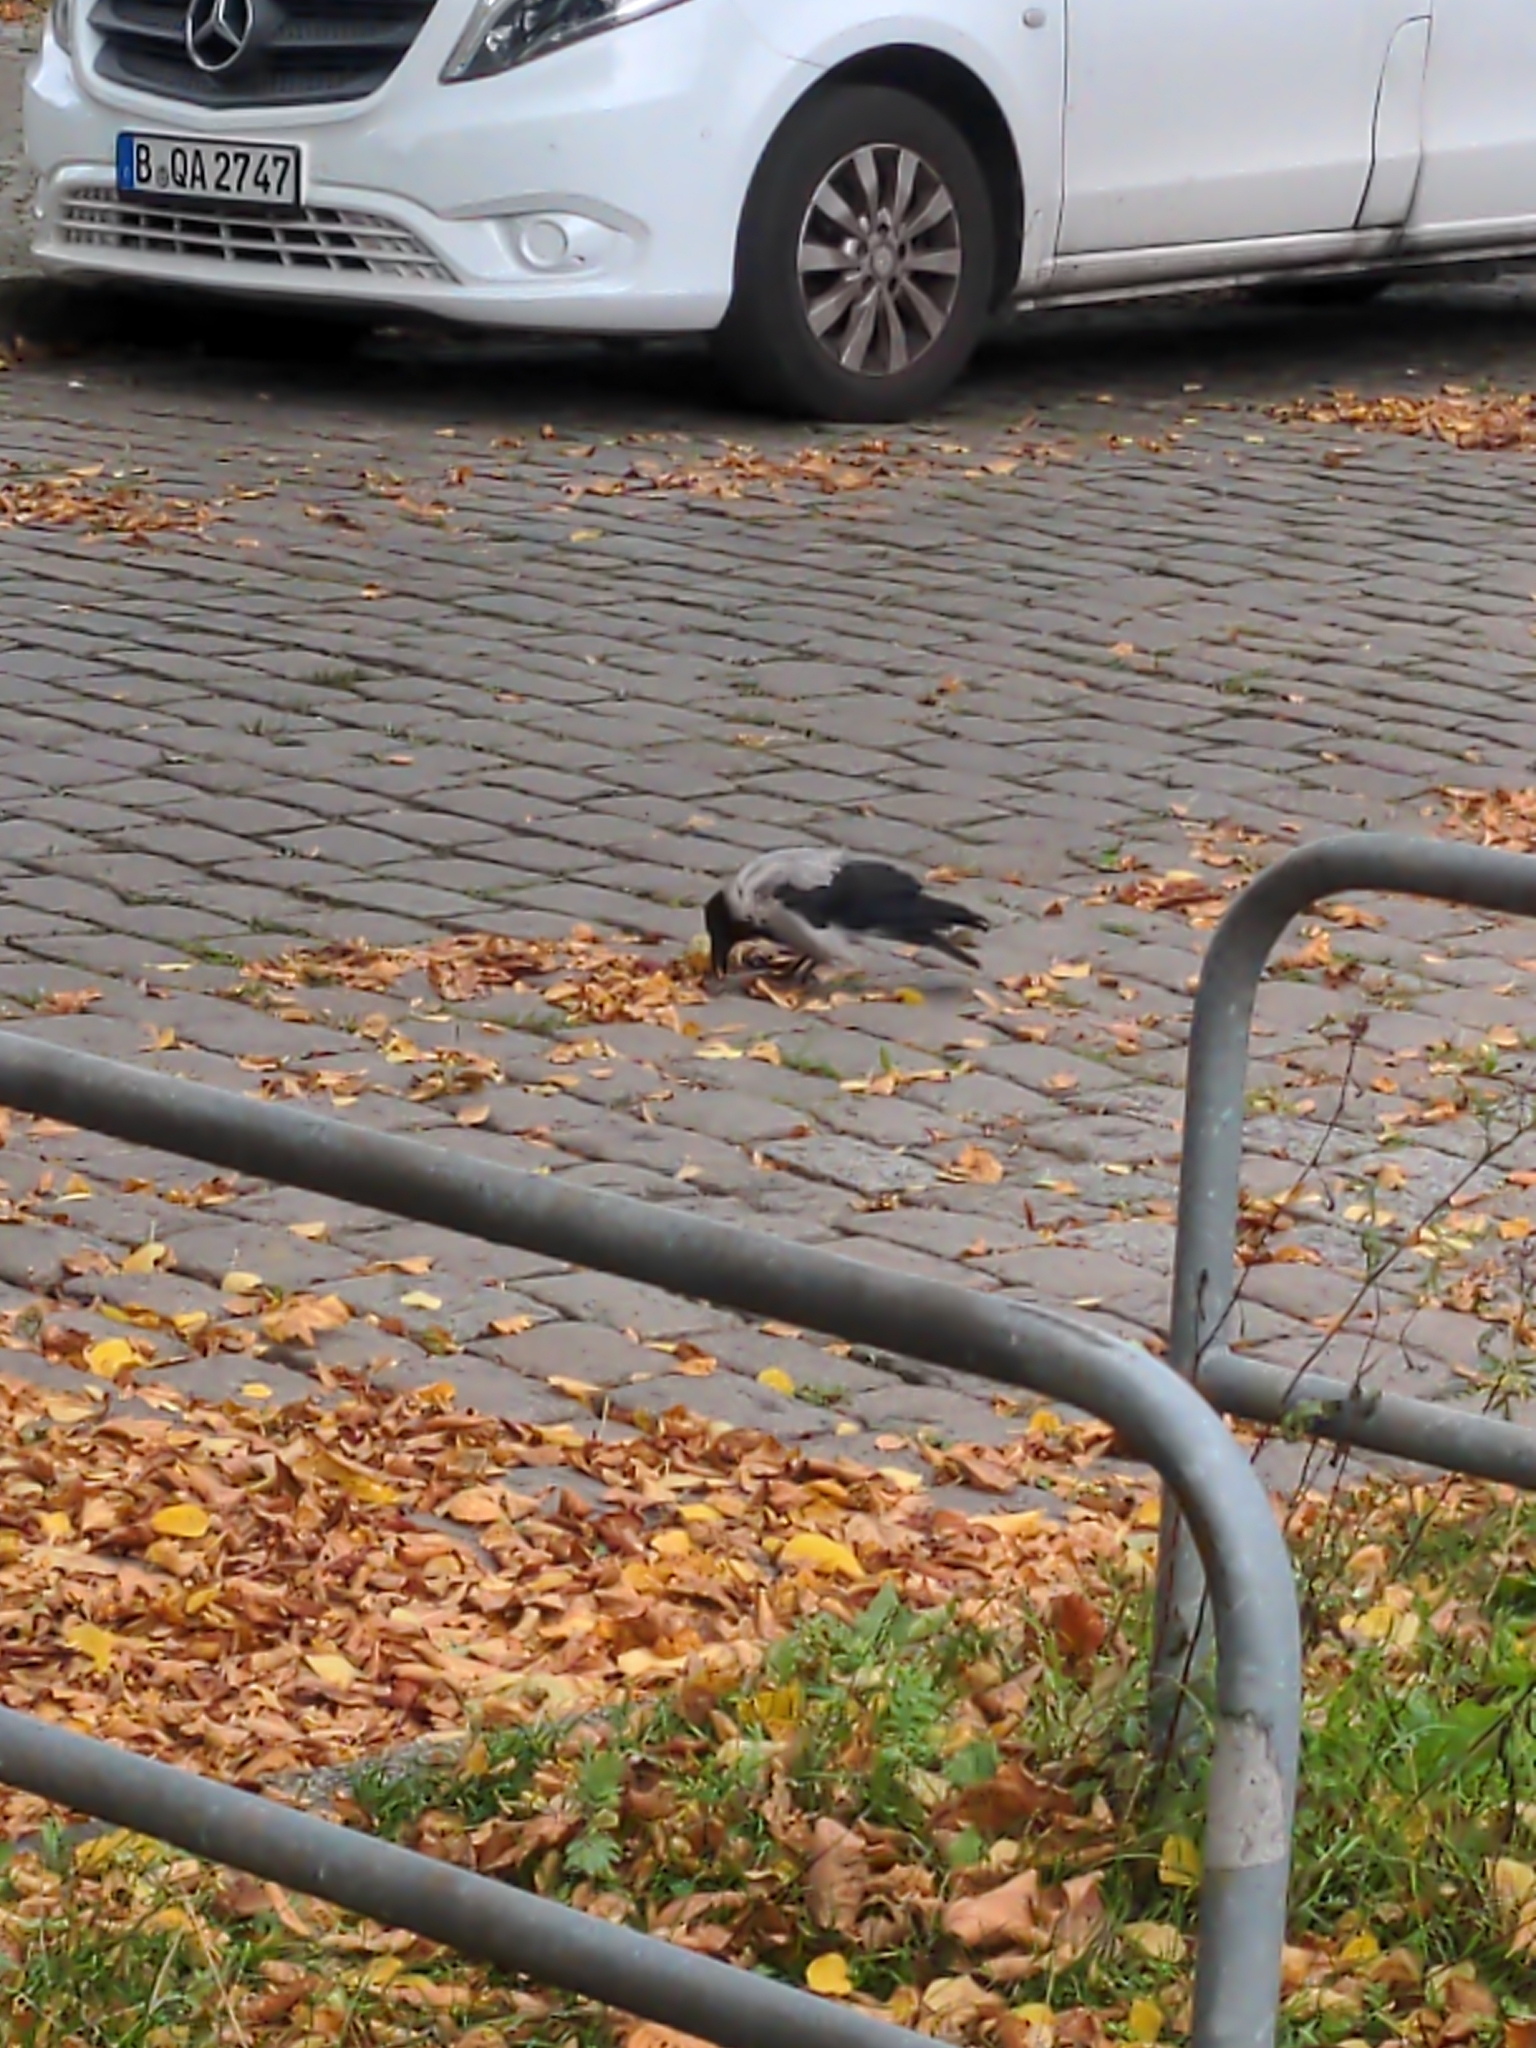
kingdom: Animalia
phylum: Chordata
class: Aves
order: Passeriformes
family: Corvidae
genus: Corvus
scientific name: Corvus cornix
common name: Hooded crow
